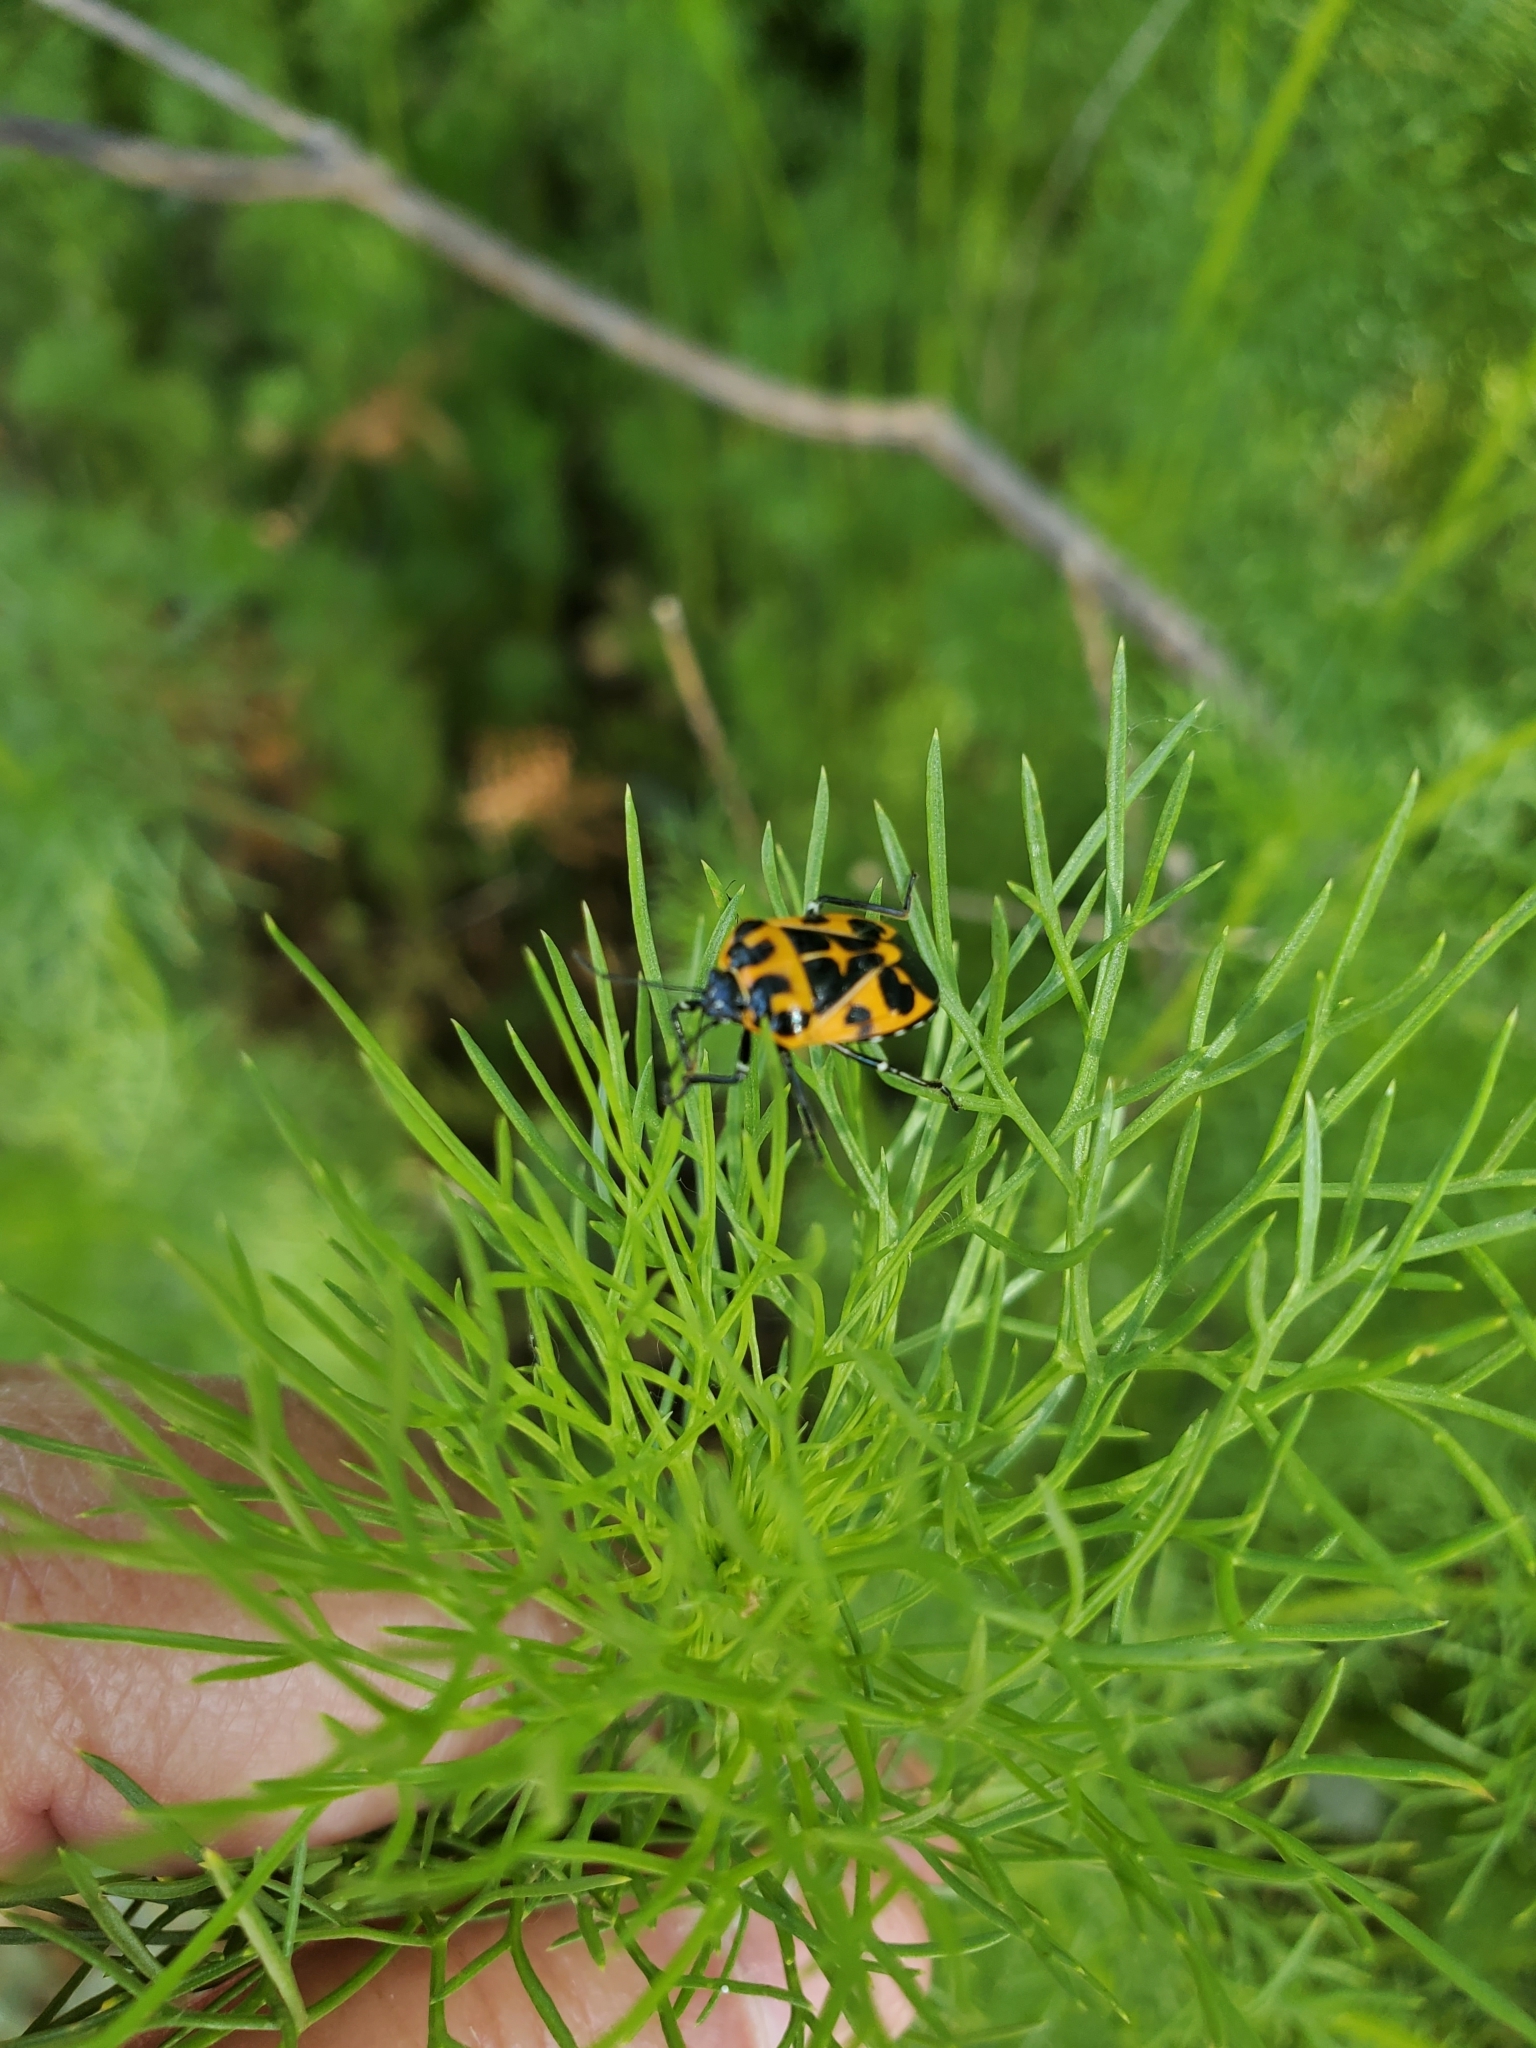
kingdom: Animalia
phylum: Arthropoda
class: Insecta
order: Hemiptera
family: Pentatomidae
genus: Murgantia
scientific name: Murgantia histrionica
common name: Harlequin bug
